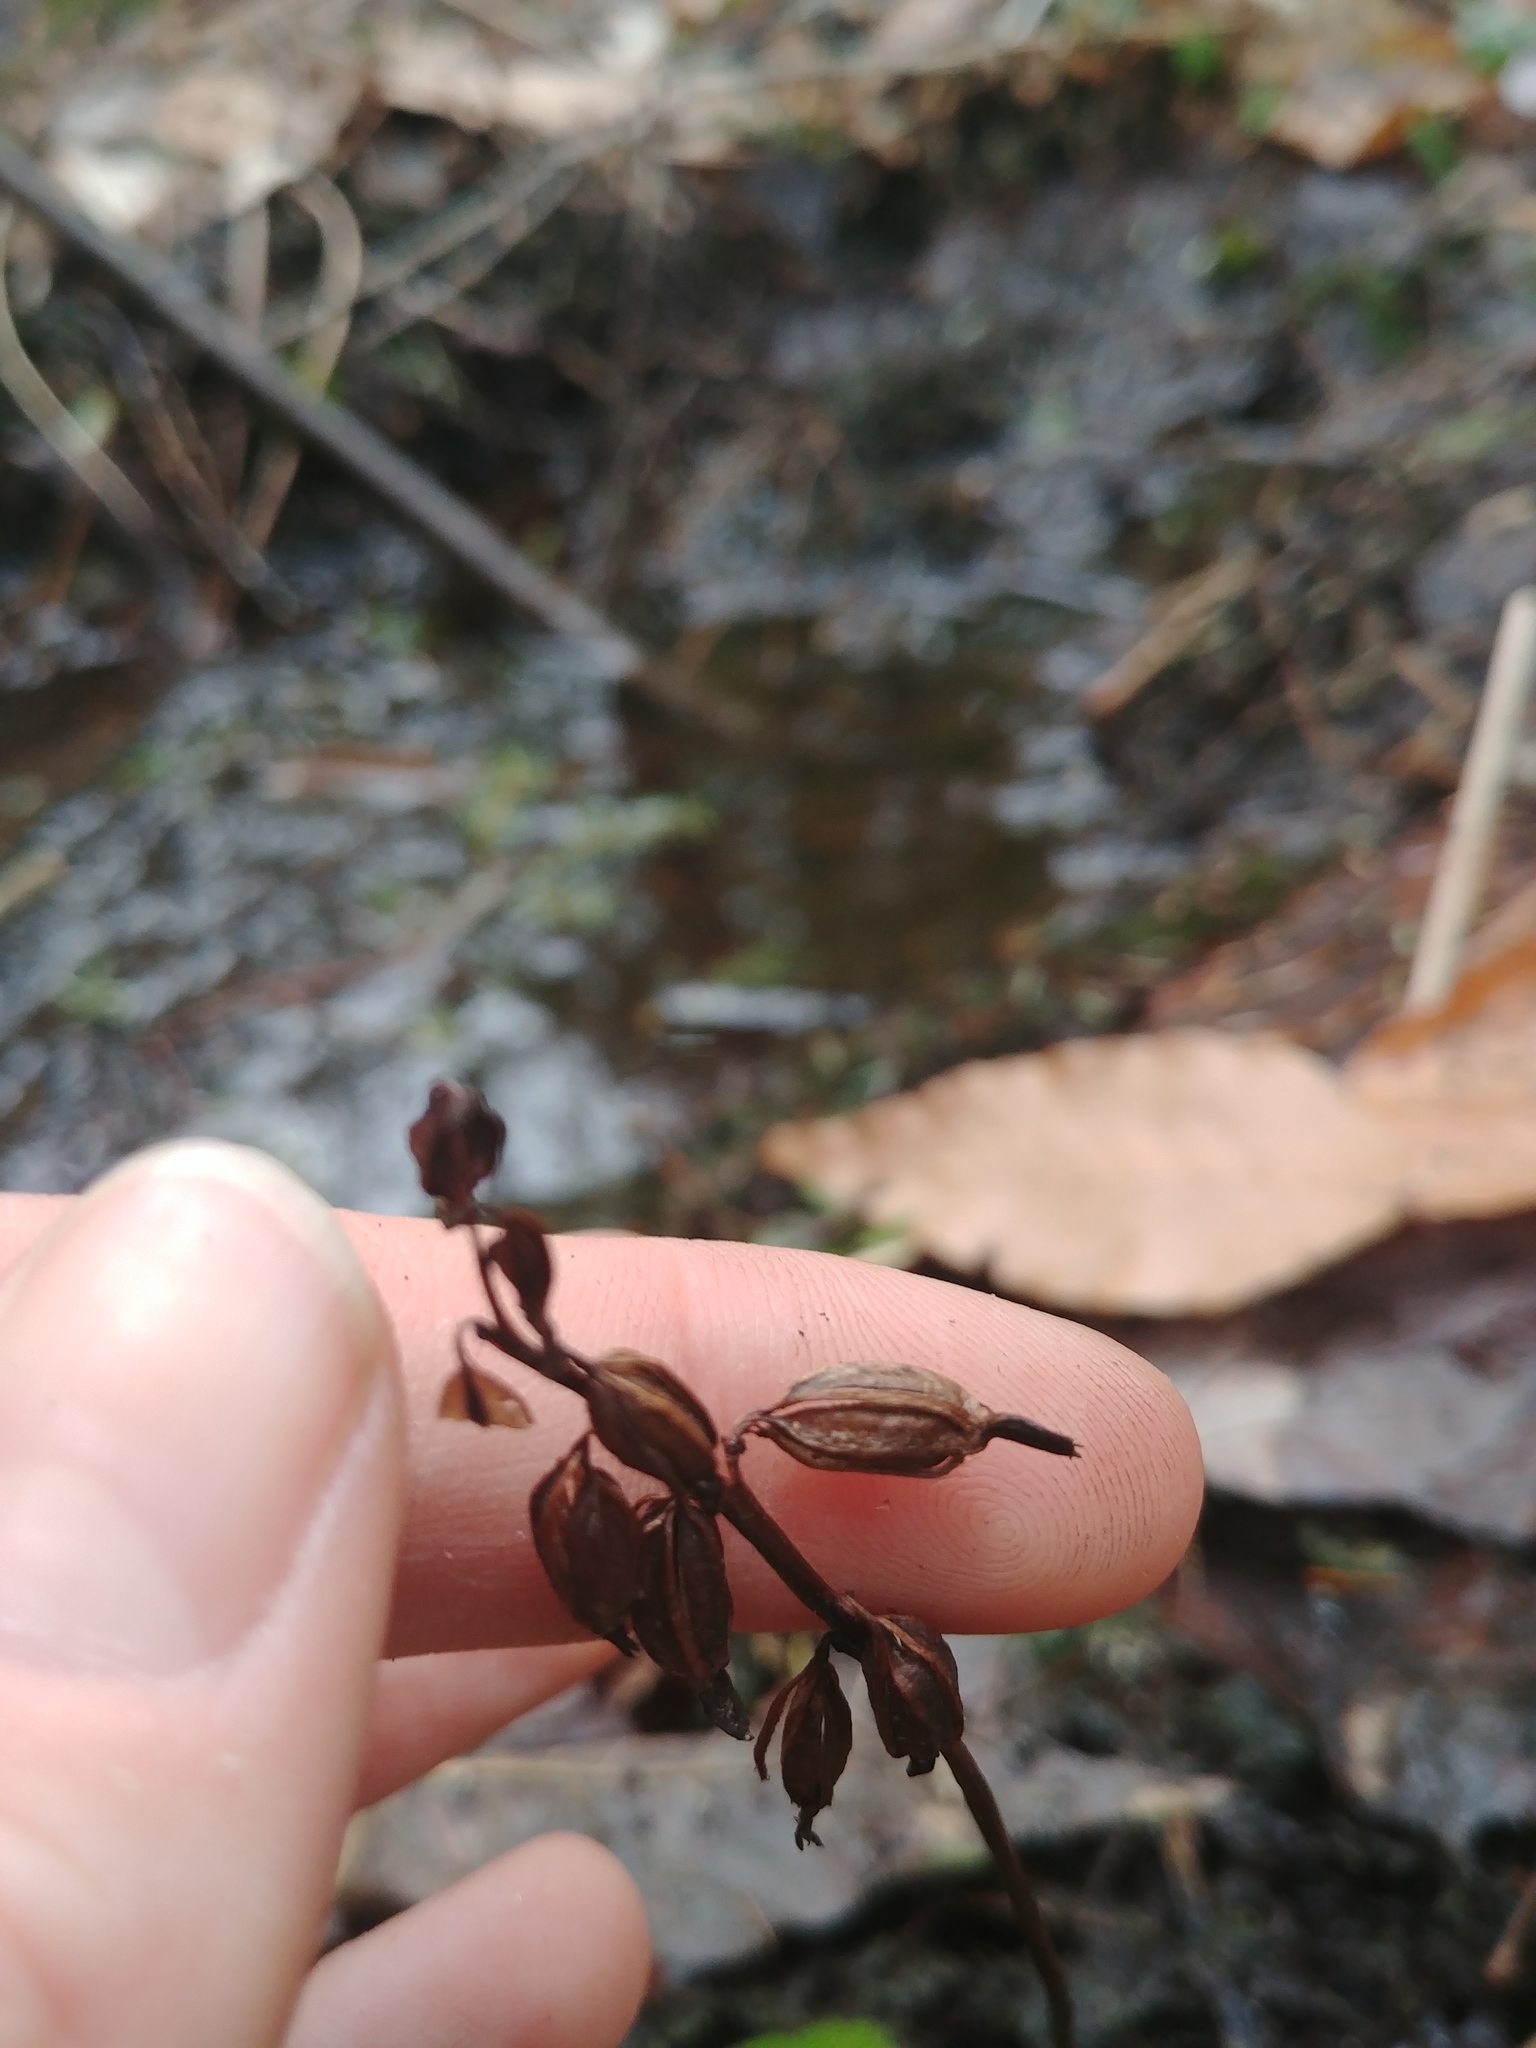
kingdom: Plantae
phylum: Tracheophyta
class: Liliopsida
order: Asparagales
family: Orchidaceae
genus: Corallorhiza
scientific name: Corallorhiza trifida
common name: Yellow coralroot
